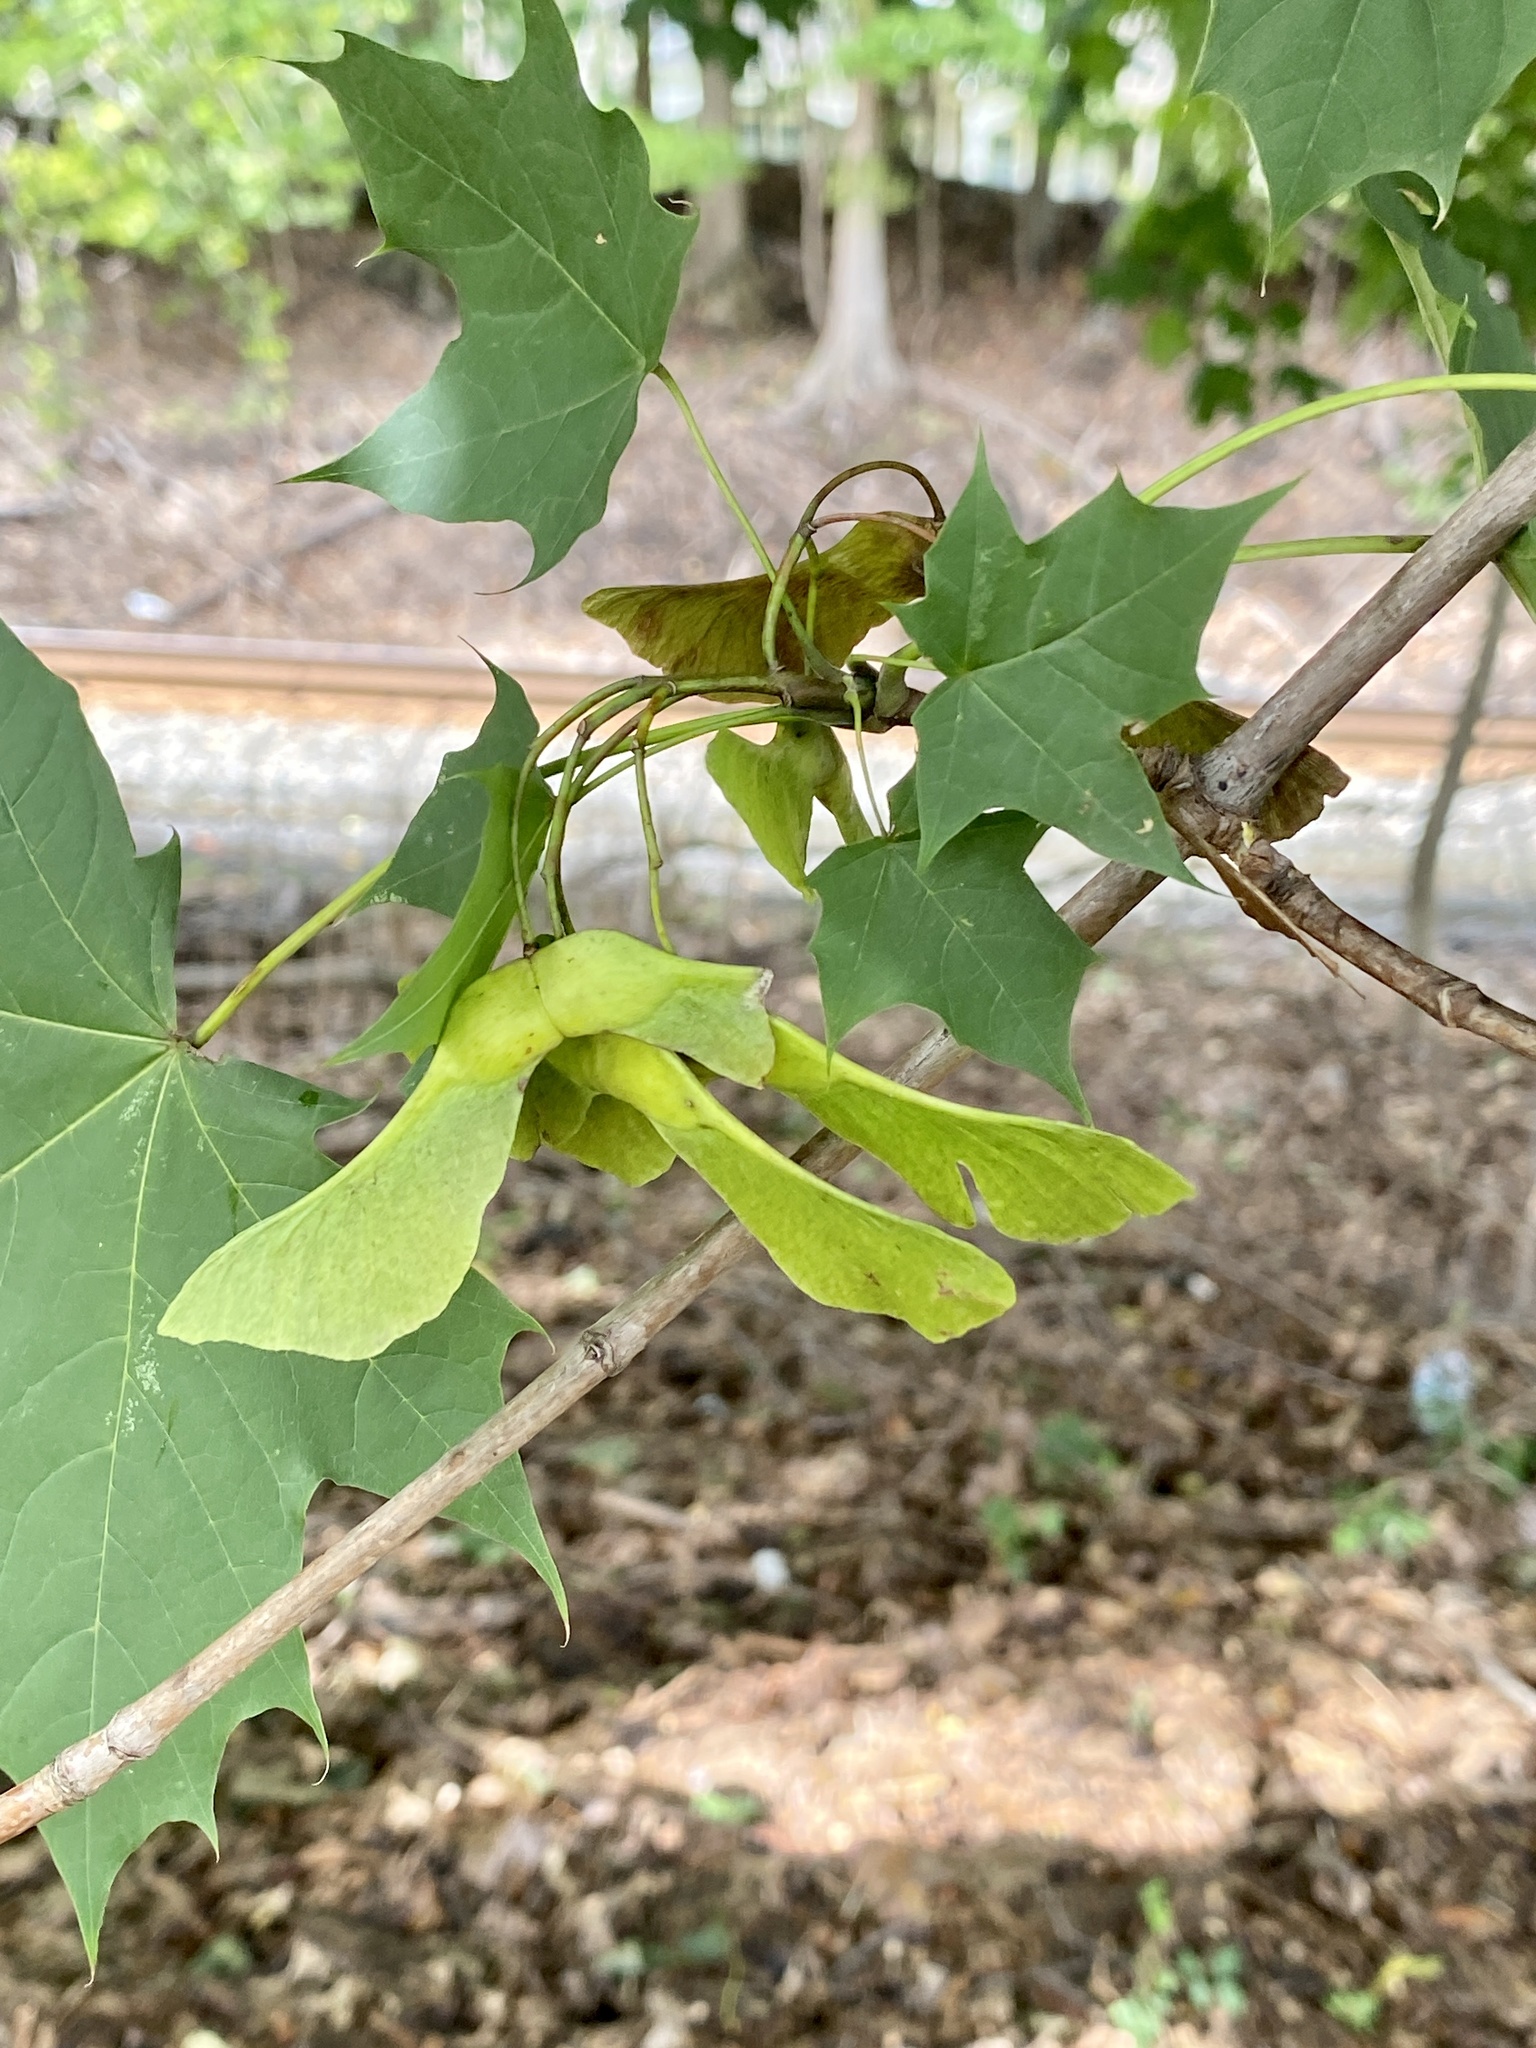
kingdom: Plantae
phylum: Tracheophyta
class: Magnoliopsida
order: Sapindales
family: Sapindaceae
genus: Acer
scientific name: Acer platanoides
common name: Norway maple
